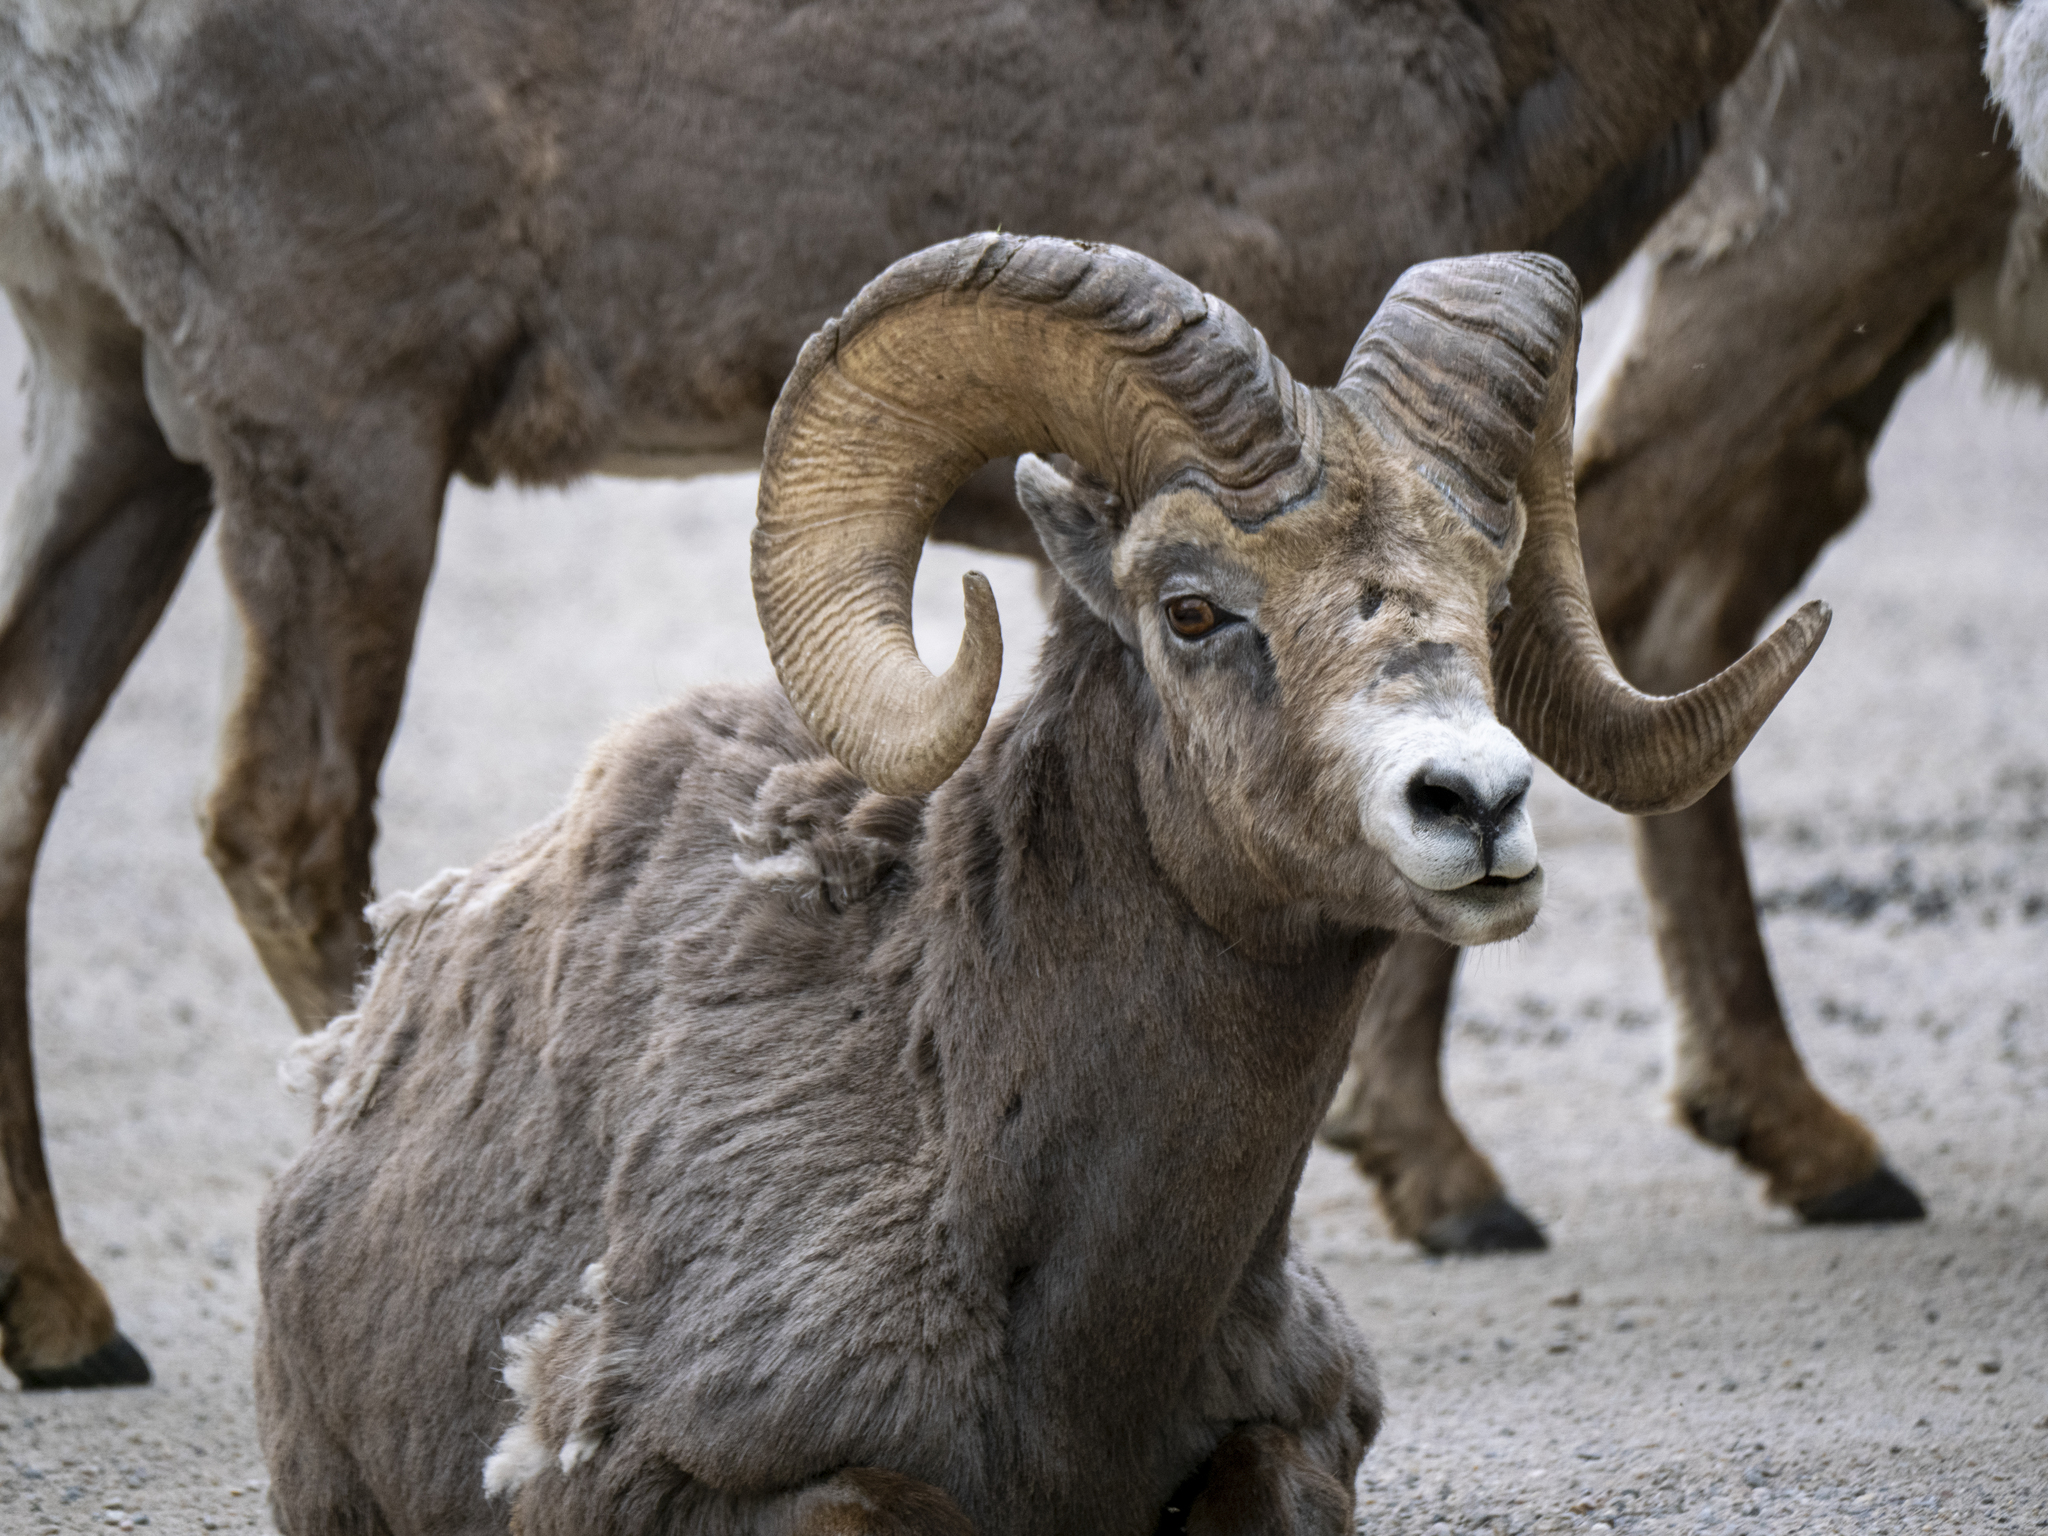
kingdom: Animalia
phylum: Chordata
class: Mammalia
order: Artiodactyla
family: Bovidae
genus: Ovis
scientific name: Ovis canadensis
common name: Bighorn sheep
